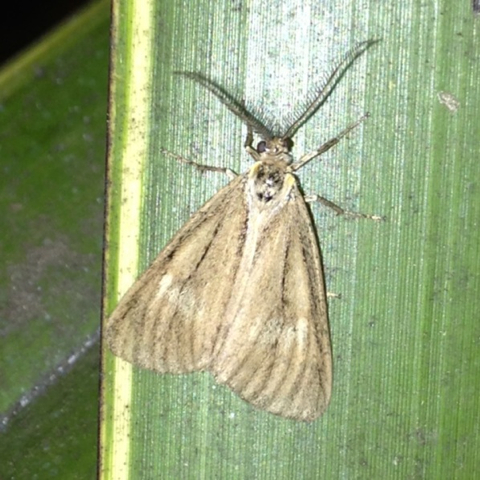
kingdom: Animalia
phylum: Arthropoda
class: Insecta
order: Lepidoptera
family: Notodontidae
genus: Phryganidia
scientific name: Phryganidia californica
